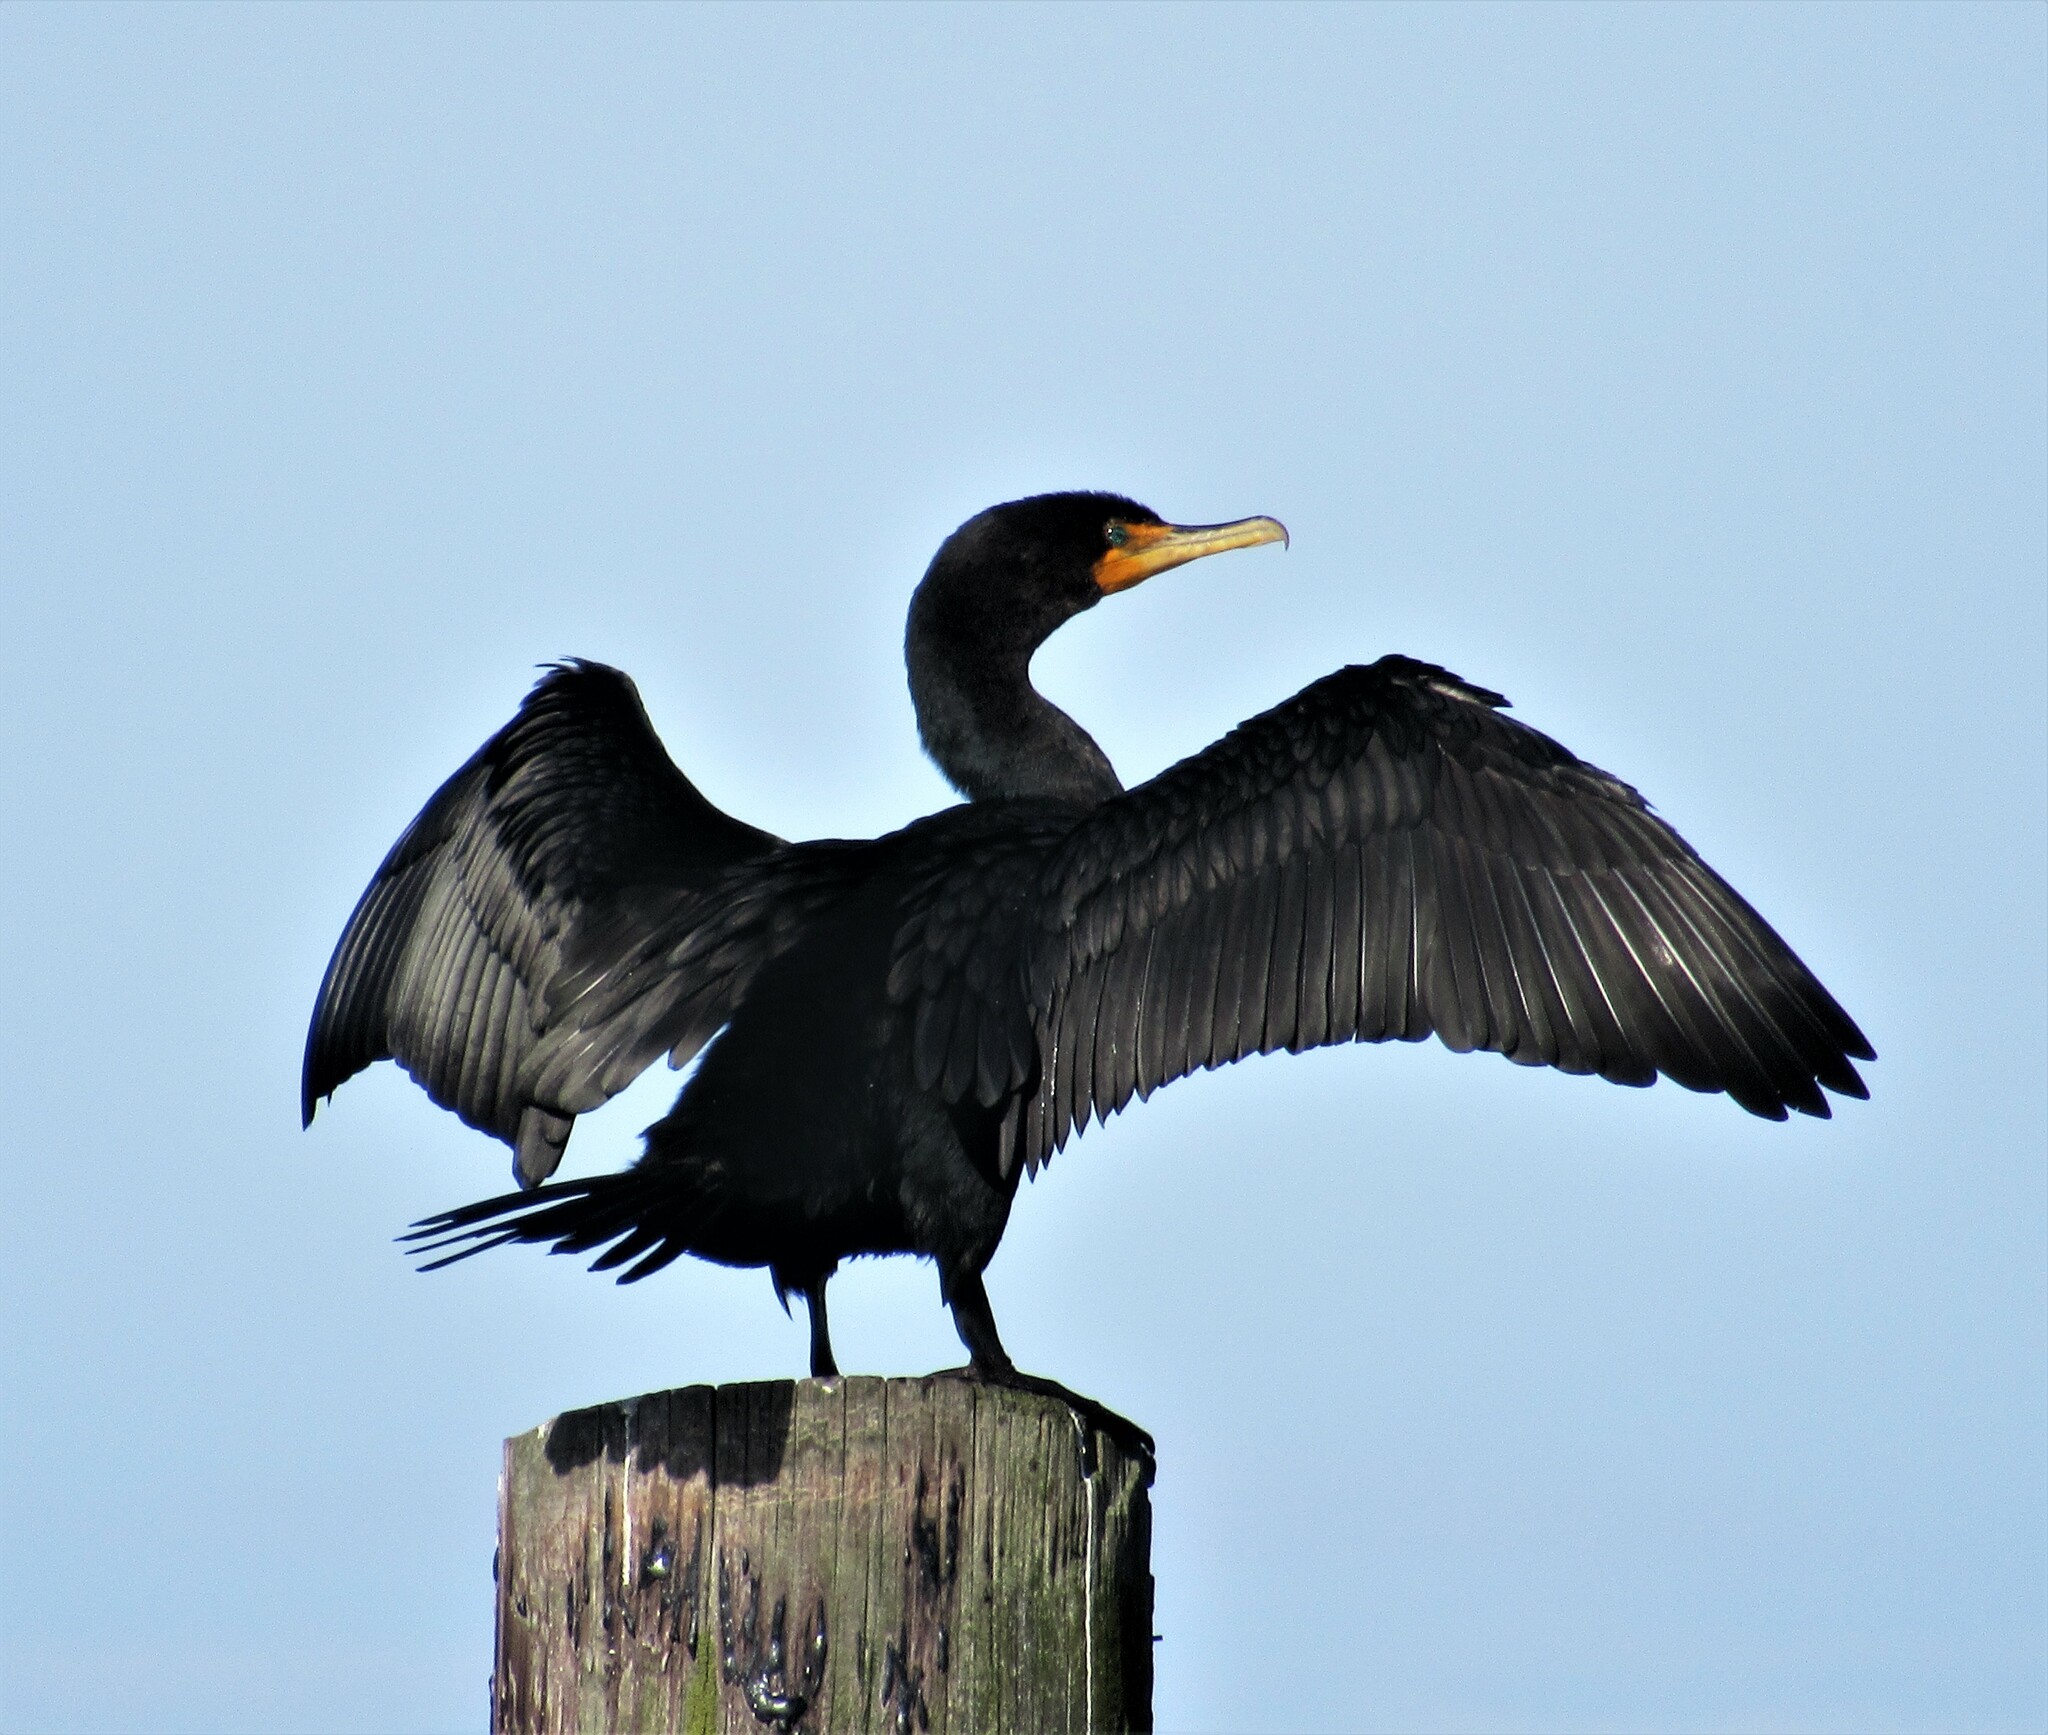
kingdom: Animalia
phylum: Chordata
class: Aves
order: Suliformes
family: Phalacrocoracidae
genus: Phalacrocorax
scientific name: Phalacrocorax auritus
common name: Double-crested cormorant
